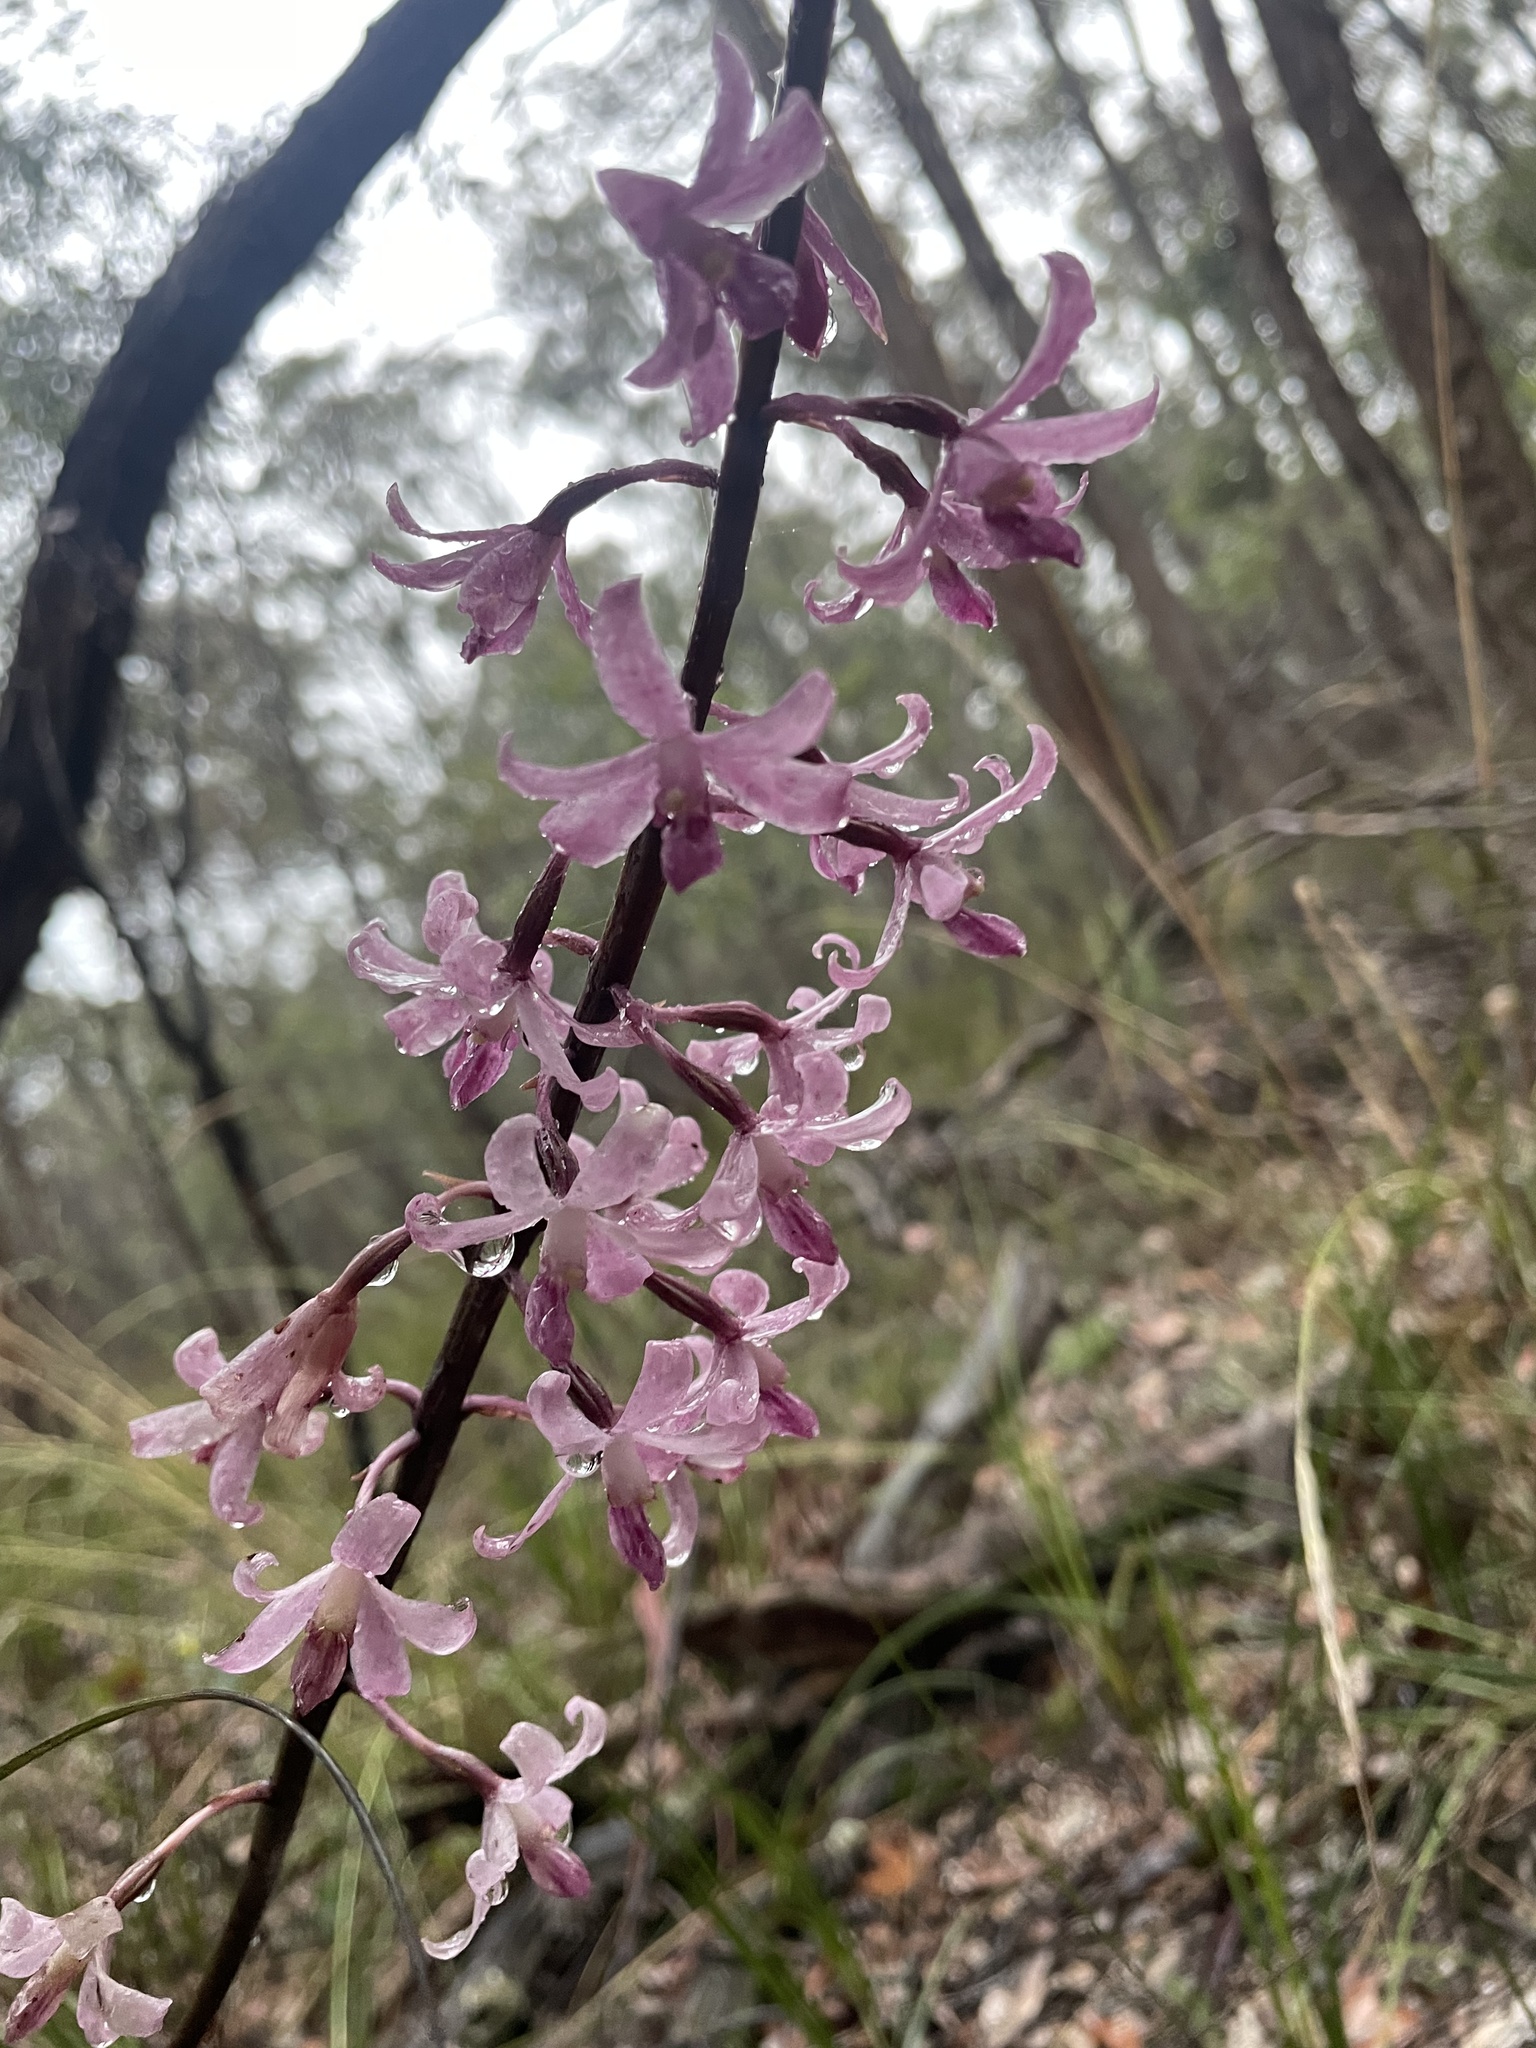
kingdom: Plantae
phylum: Tracheophyta
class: Liliopsida
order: Asparagales
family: Orchidaceae
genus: Dipodium
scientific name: Dipodium roseum
